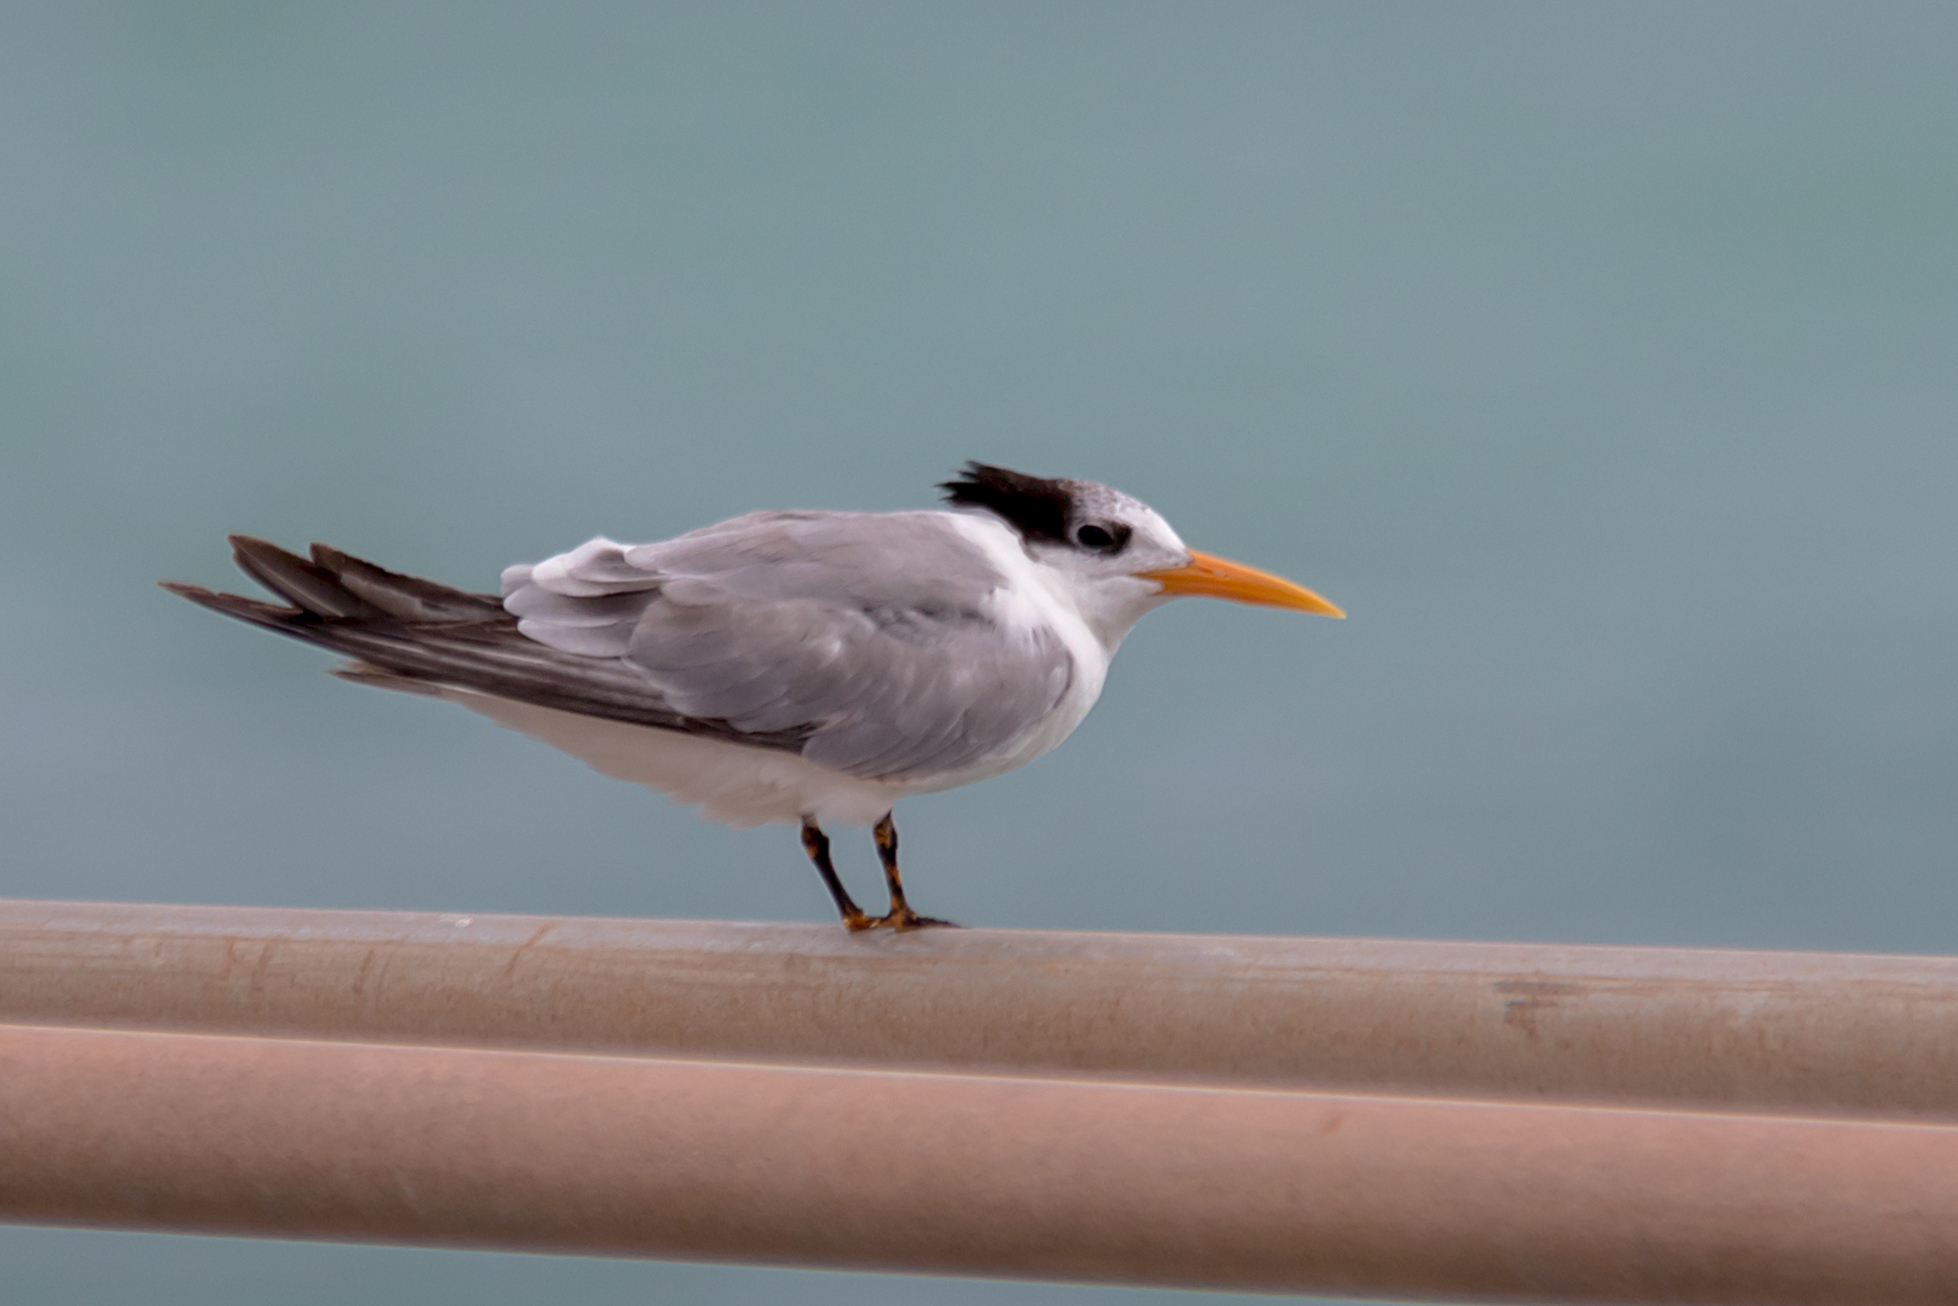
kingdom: Animalia
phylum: Chordata
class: Aves
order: Charadriiformes
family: Laridae
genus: Thalasseus
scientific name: Thalasseus bengalensis
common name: Lesser crested tern
